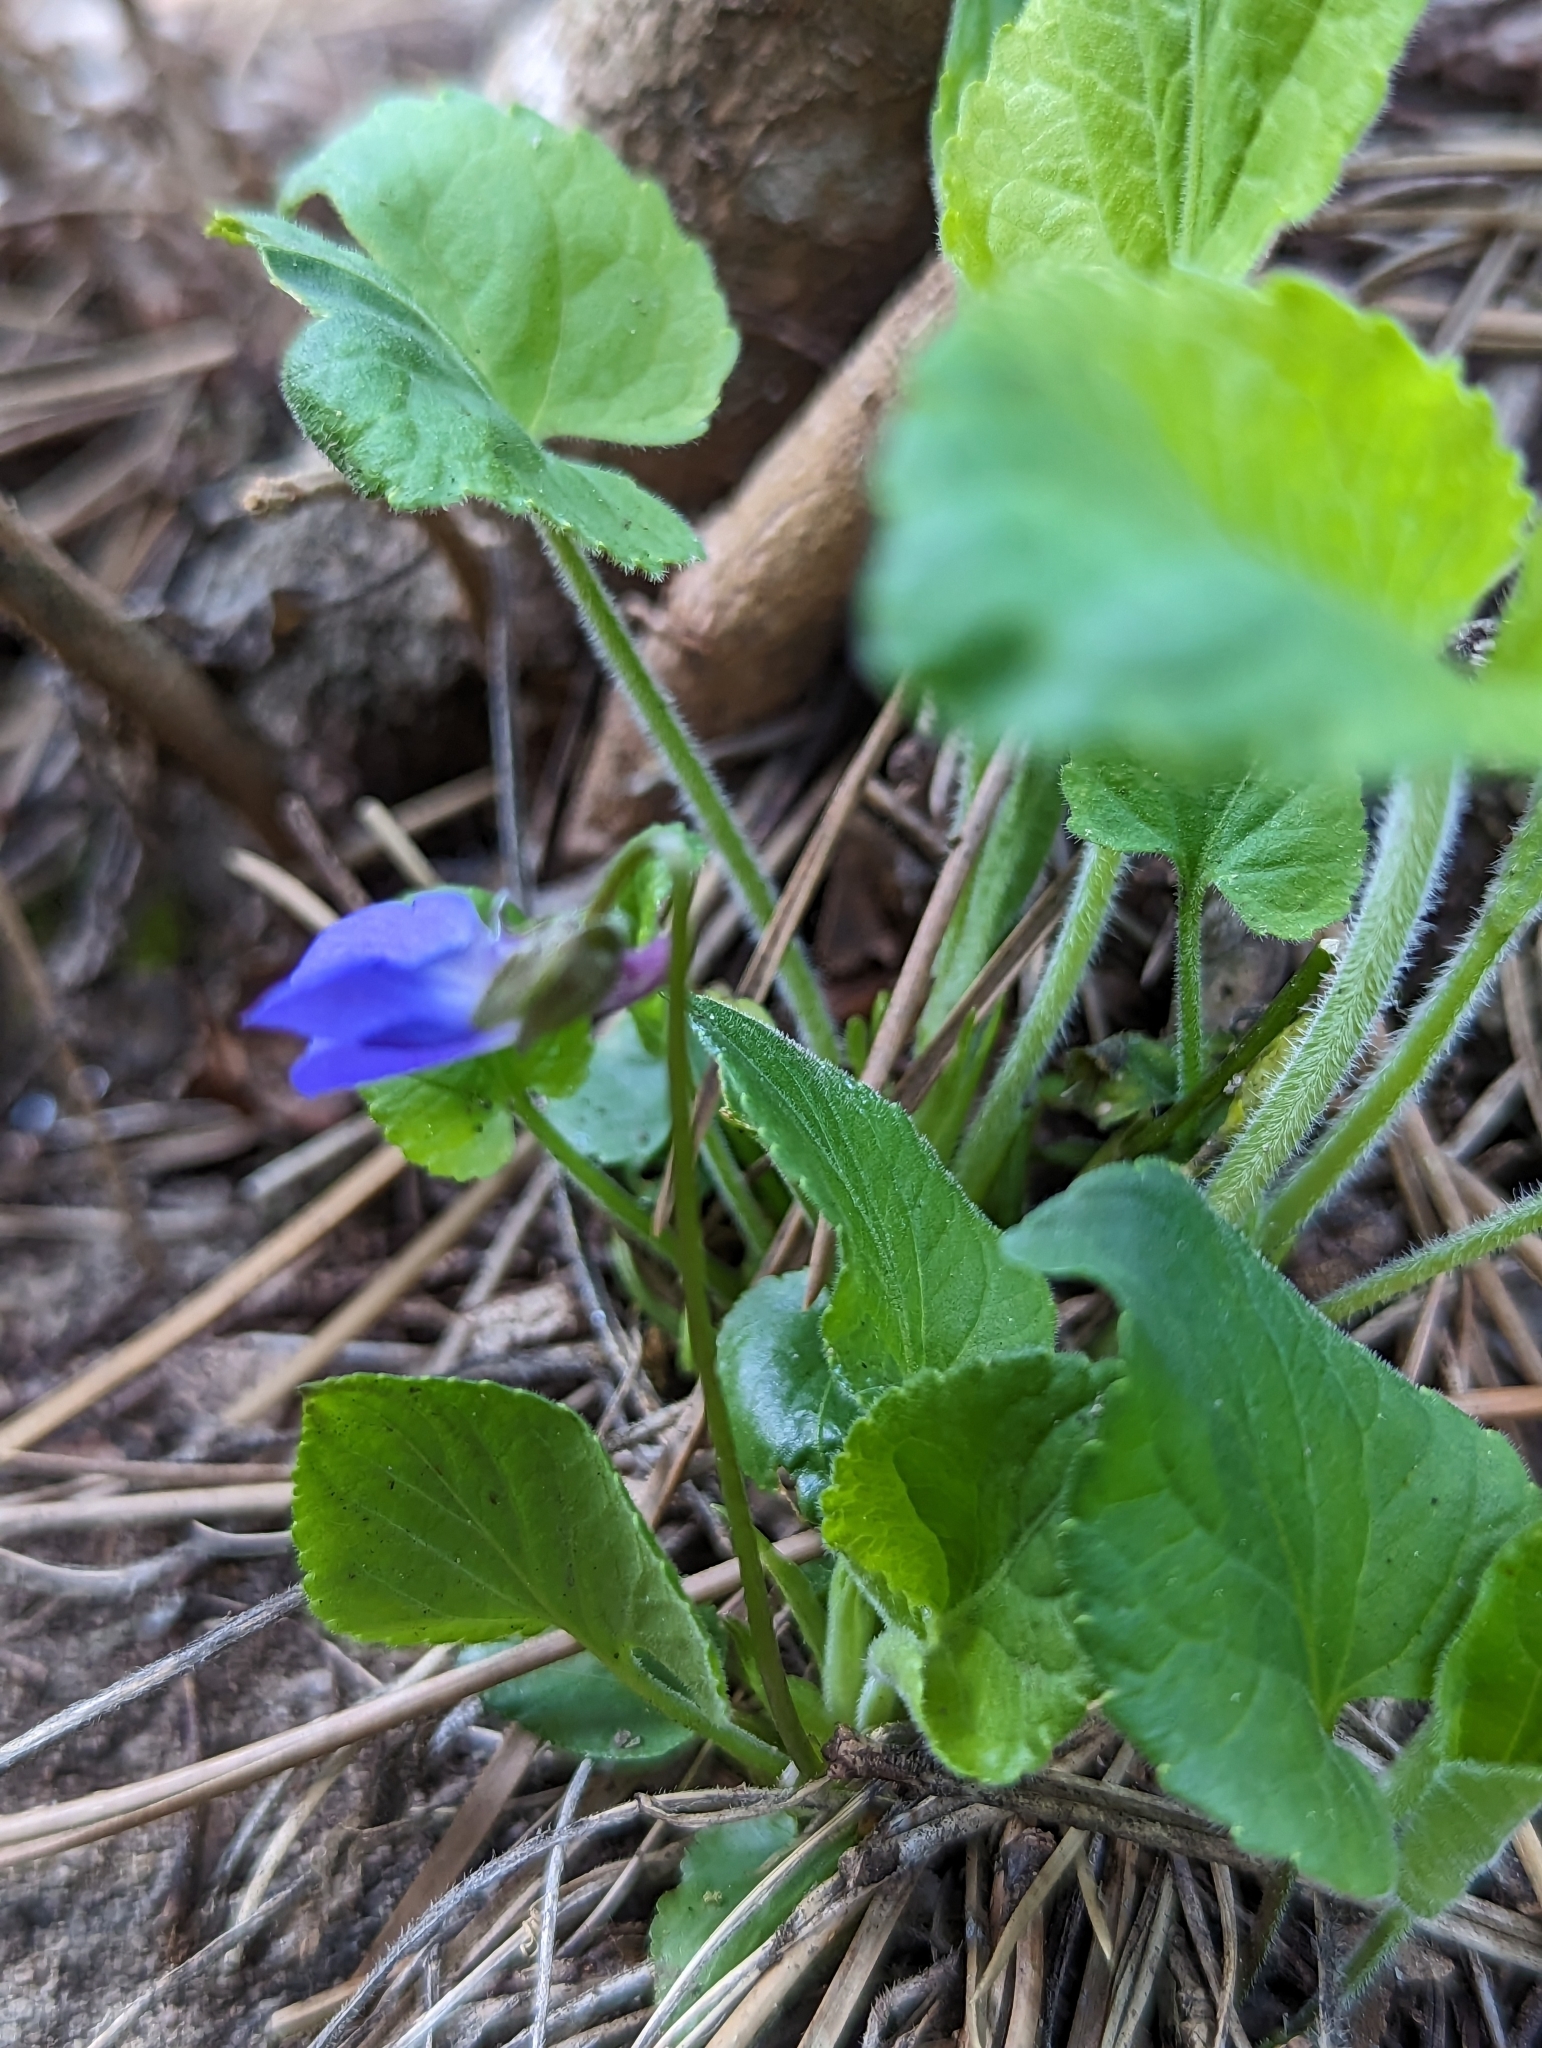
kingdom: Plantae
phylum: Tracheophyta
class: Magnoliopsida
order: Malpighiales
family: Violaceae
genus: Viola
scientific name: Viola hirta
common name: Hairy violet
